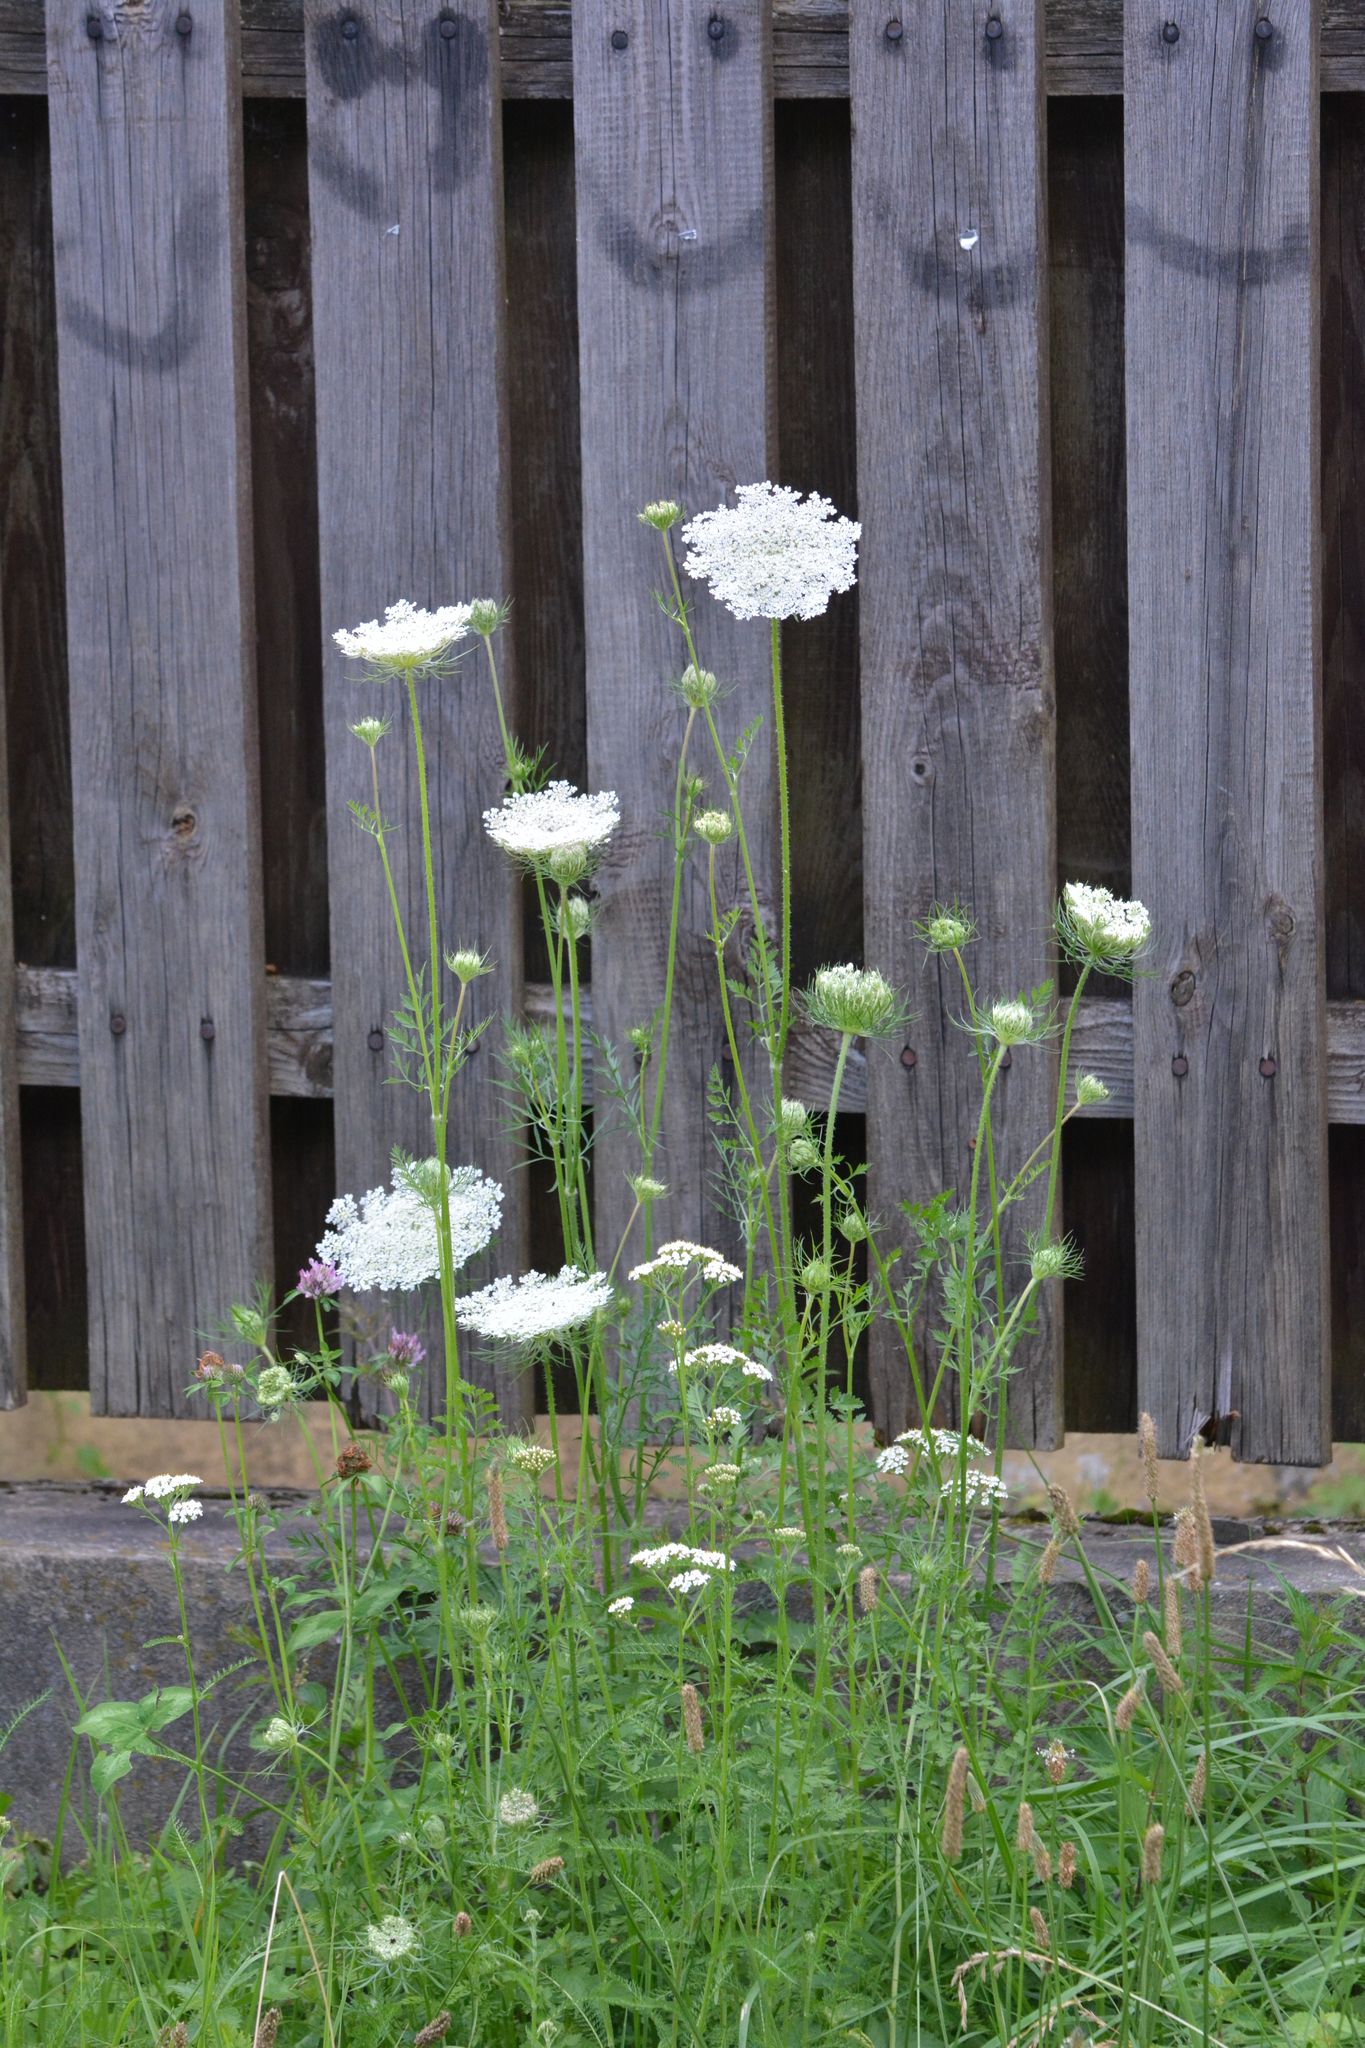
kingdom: Plantae
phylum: Tracheophyta
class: Magnoliopsida
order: Apiales
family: Apiaceae
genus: Daucus
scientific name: Daucus carota
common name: Wild carrot
